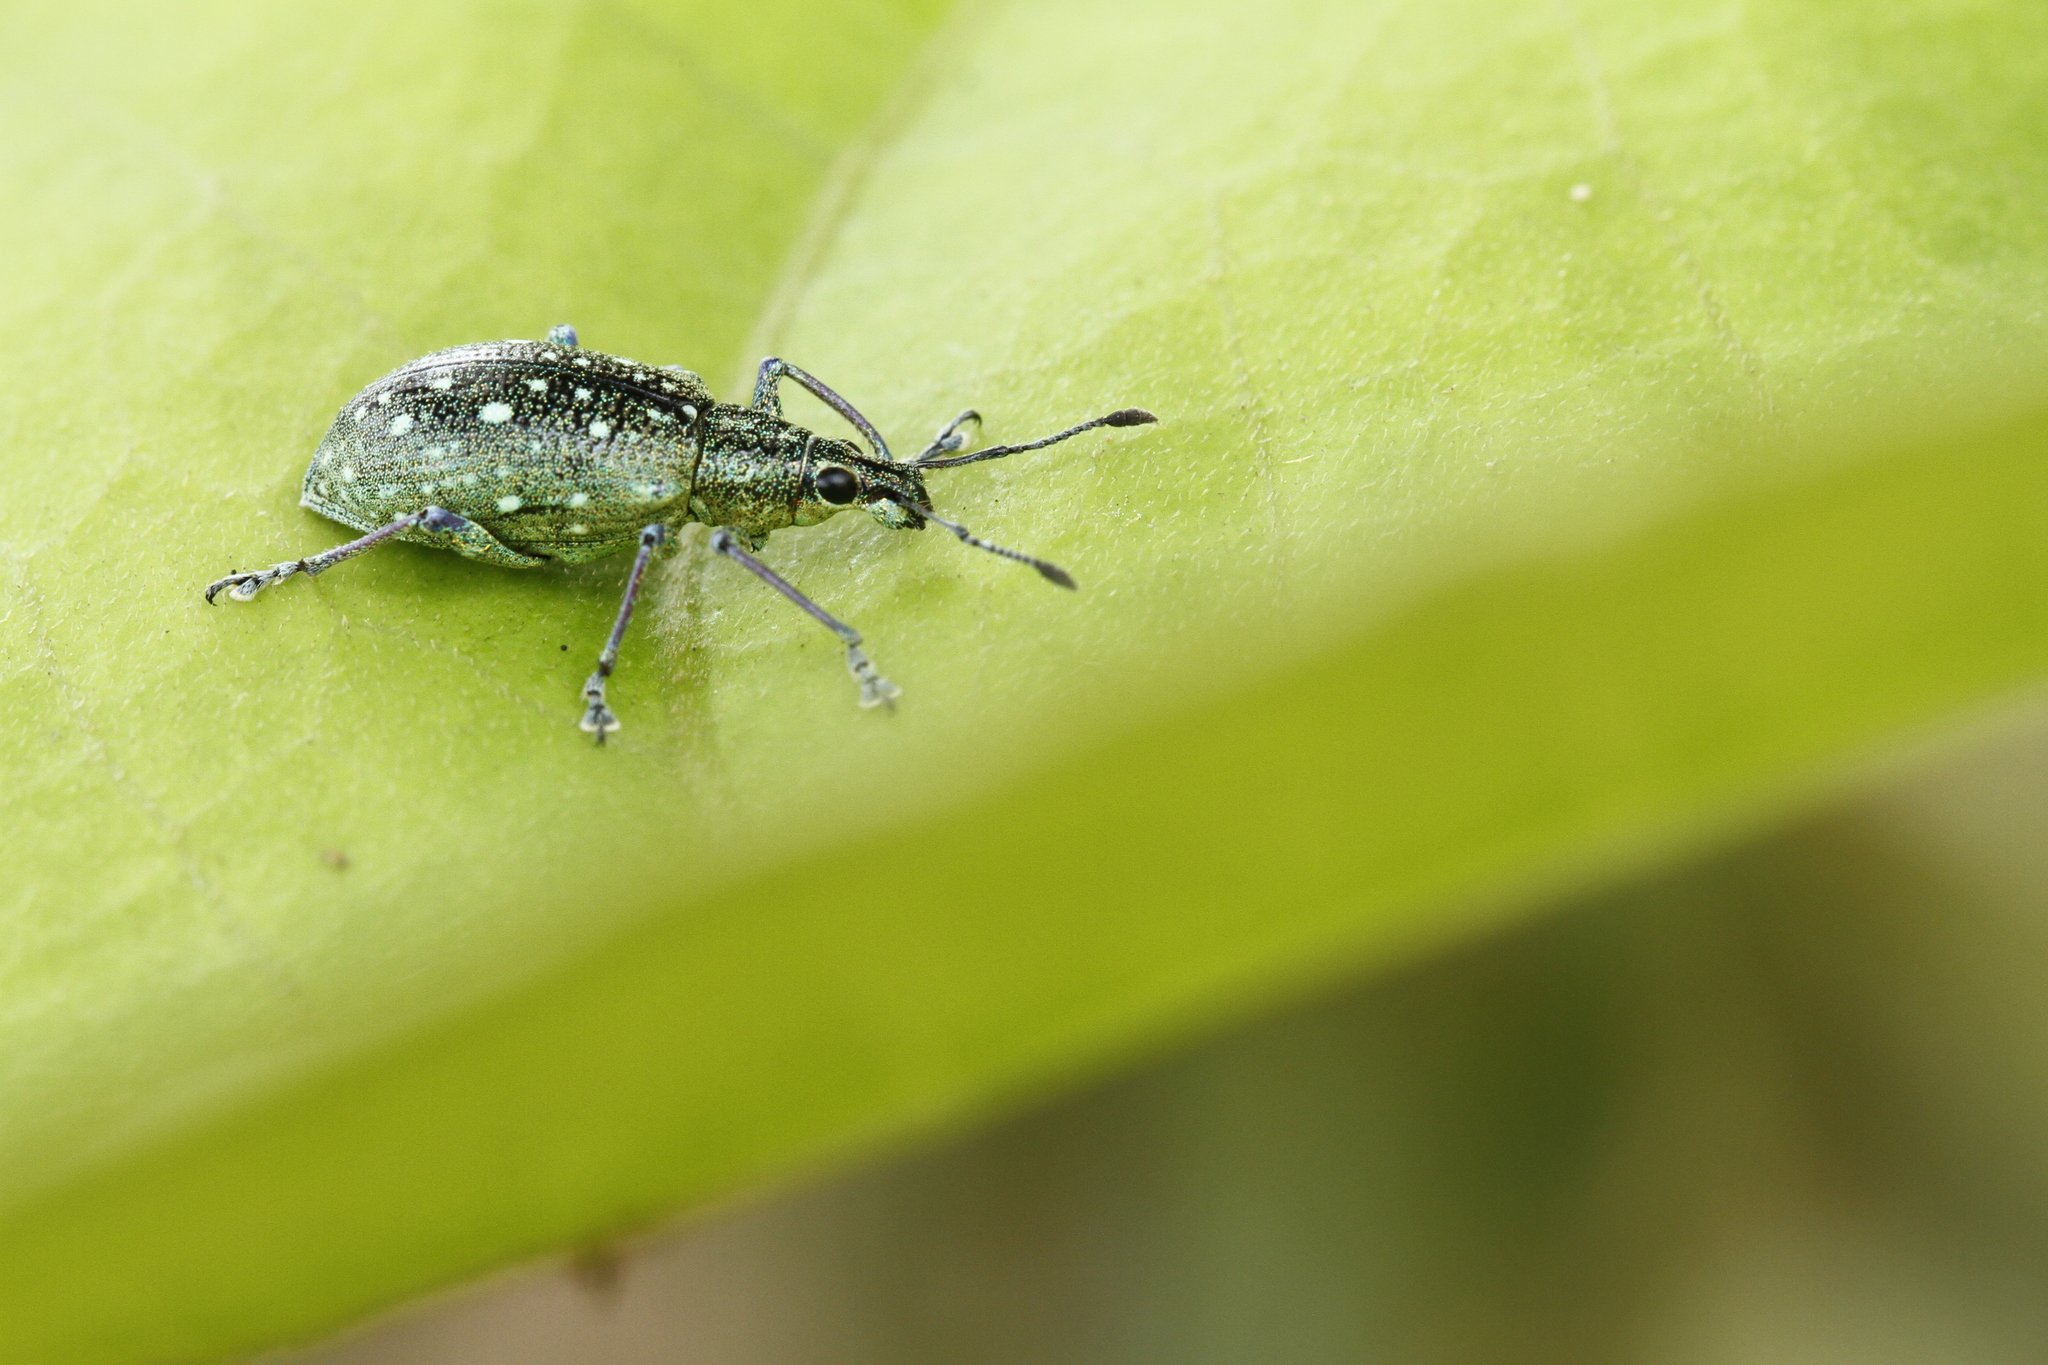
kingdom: Animalia
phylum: Arthropoda
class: Insecta
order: Coleoptera
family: Curculionidae
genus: Exophthalmus
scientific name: Exophthalmus jekelianus
